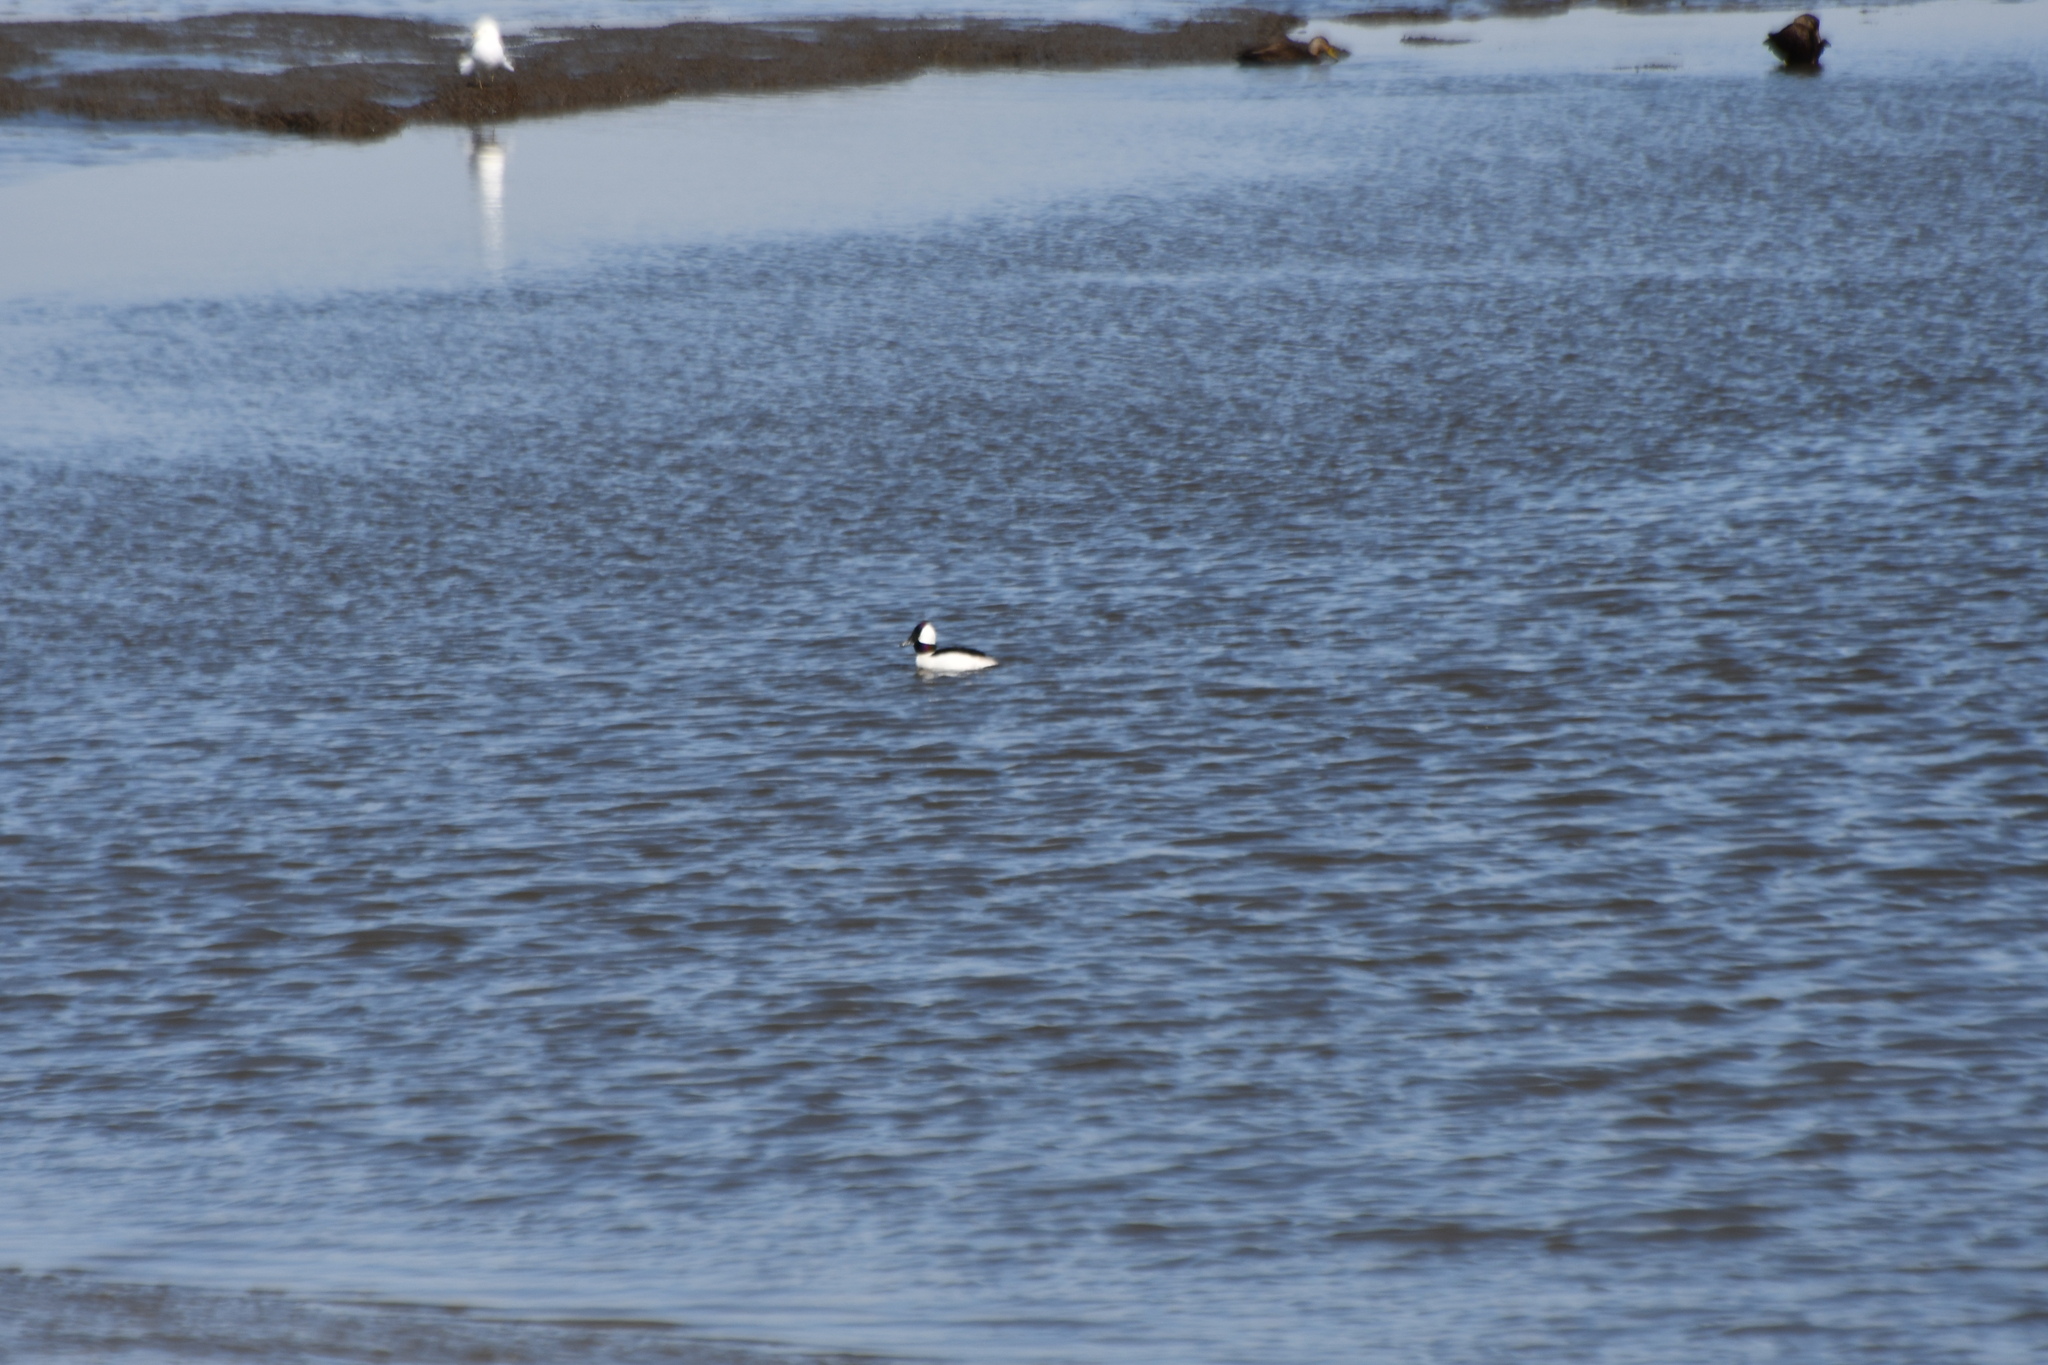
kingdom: Animalia
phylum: Chordata
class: Aves
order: Anseriformes
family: Anatidae
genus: Bucephala
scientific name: Bucephala albeola
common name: Bufflehead
